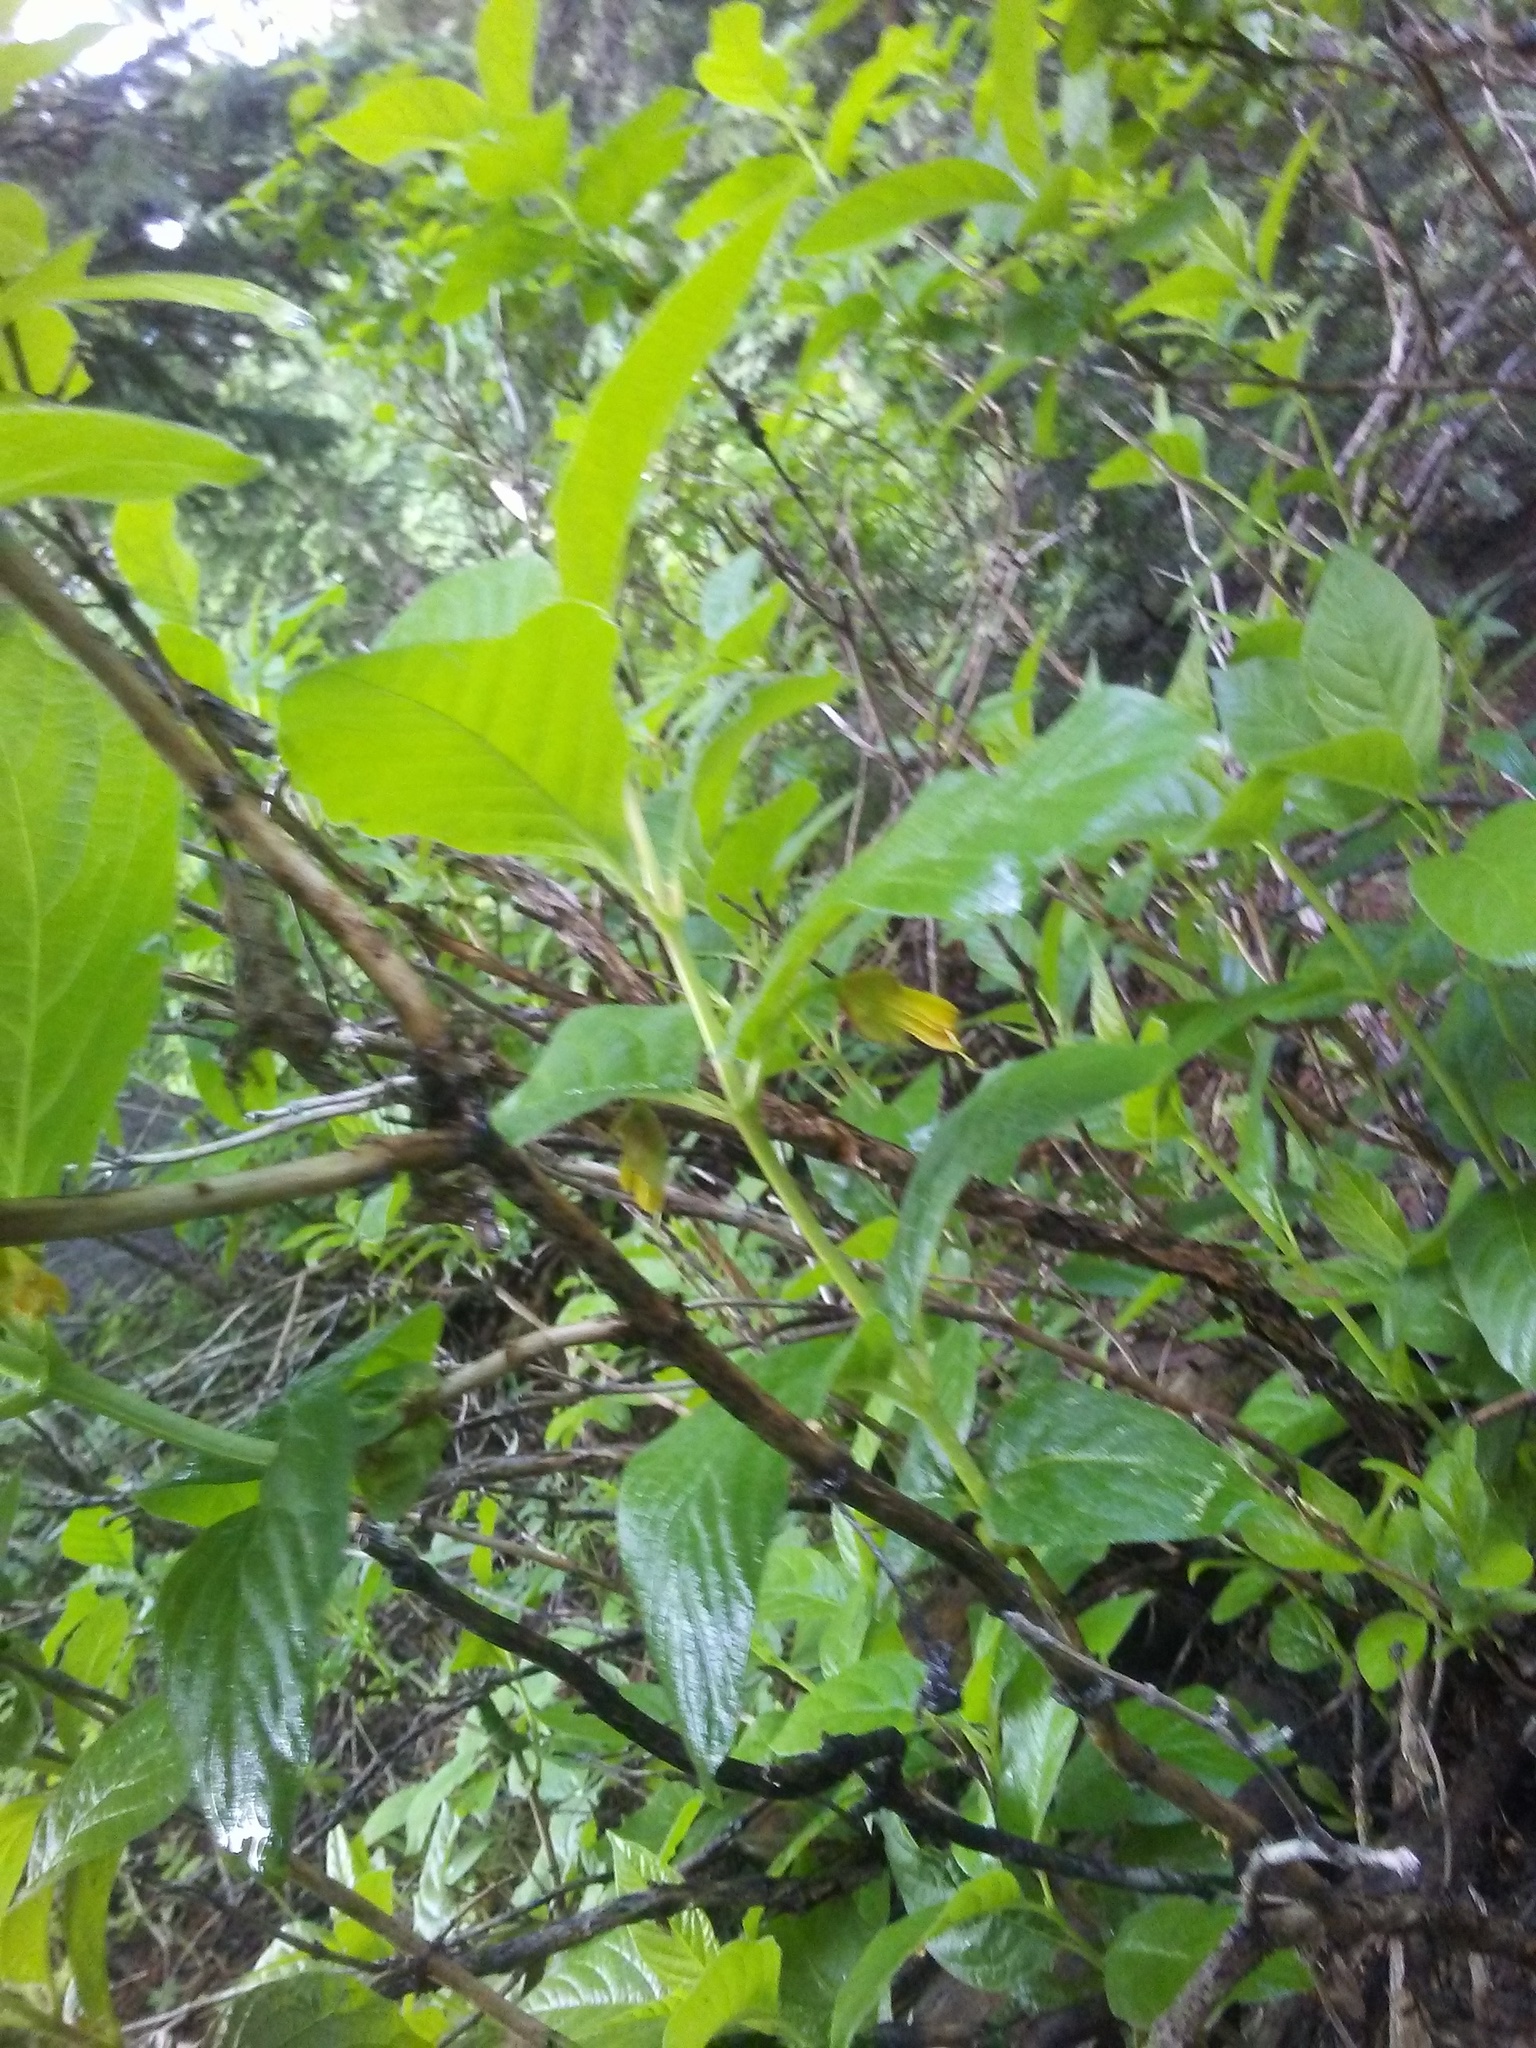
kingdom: Plantae
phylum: Tracheophyta
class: Magnoliopsida
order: Dipsacales
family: Caprifoliaceae
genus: Lonicera
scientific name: Lonicera involucrata
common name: Californian honeysuckle
